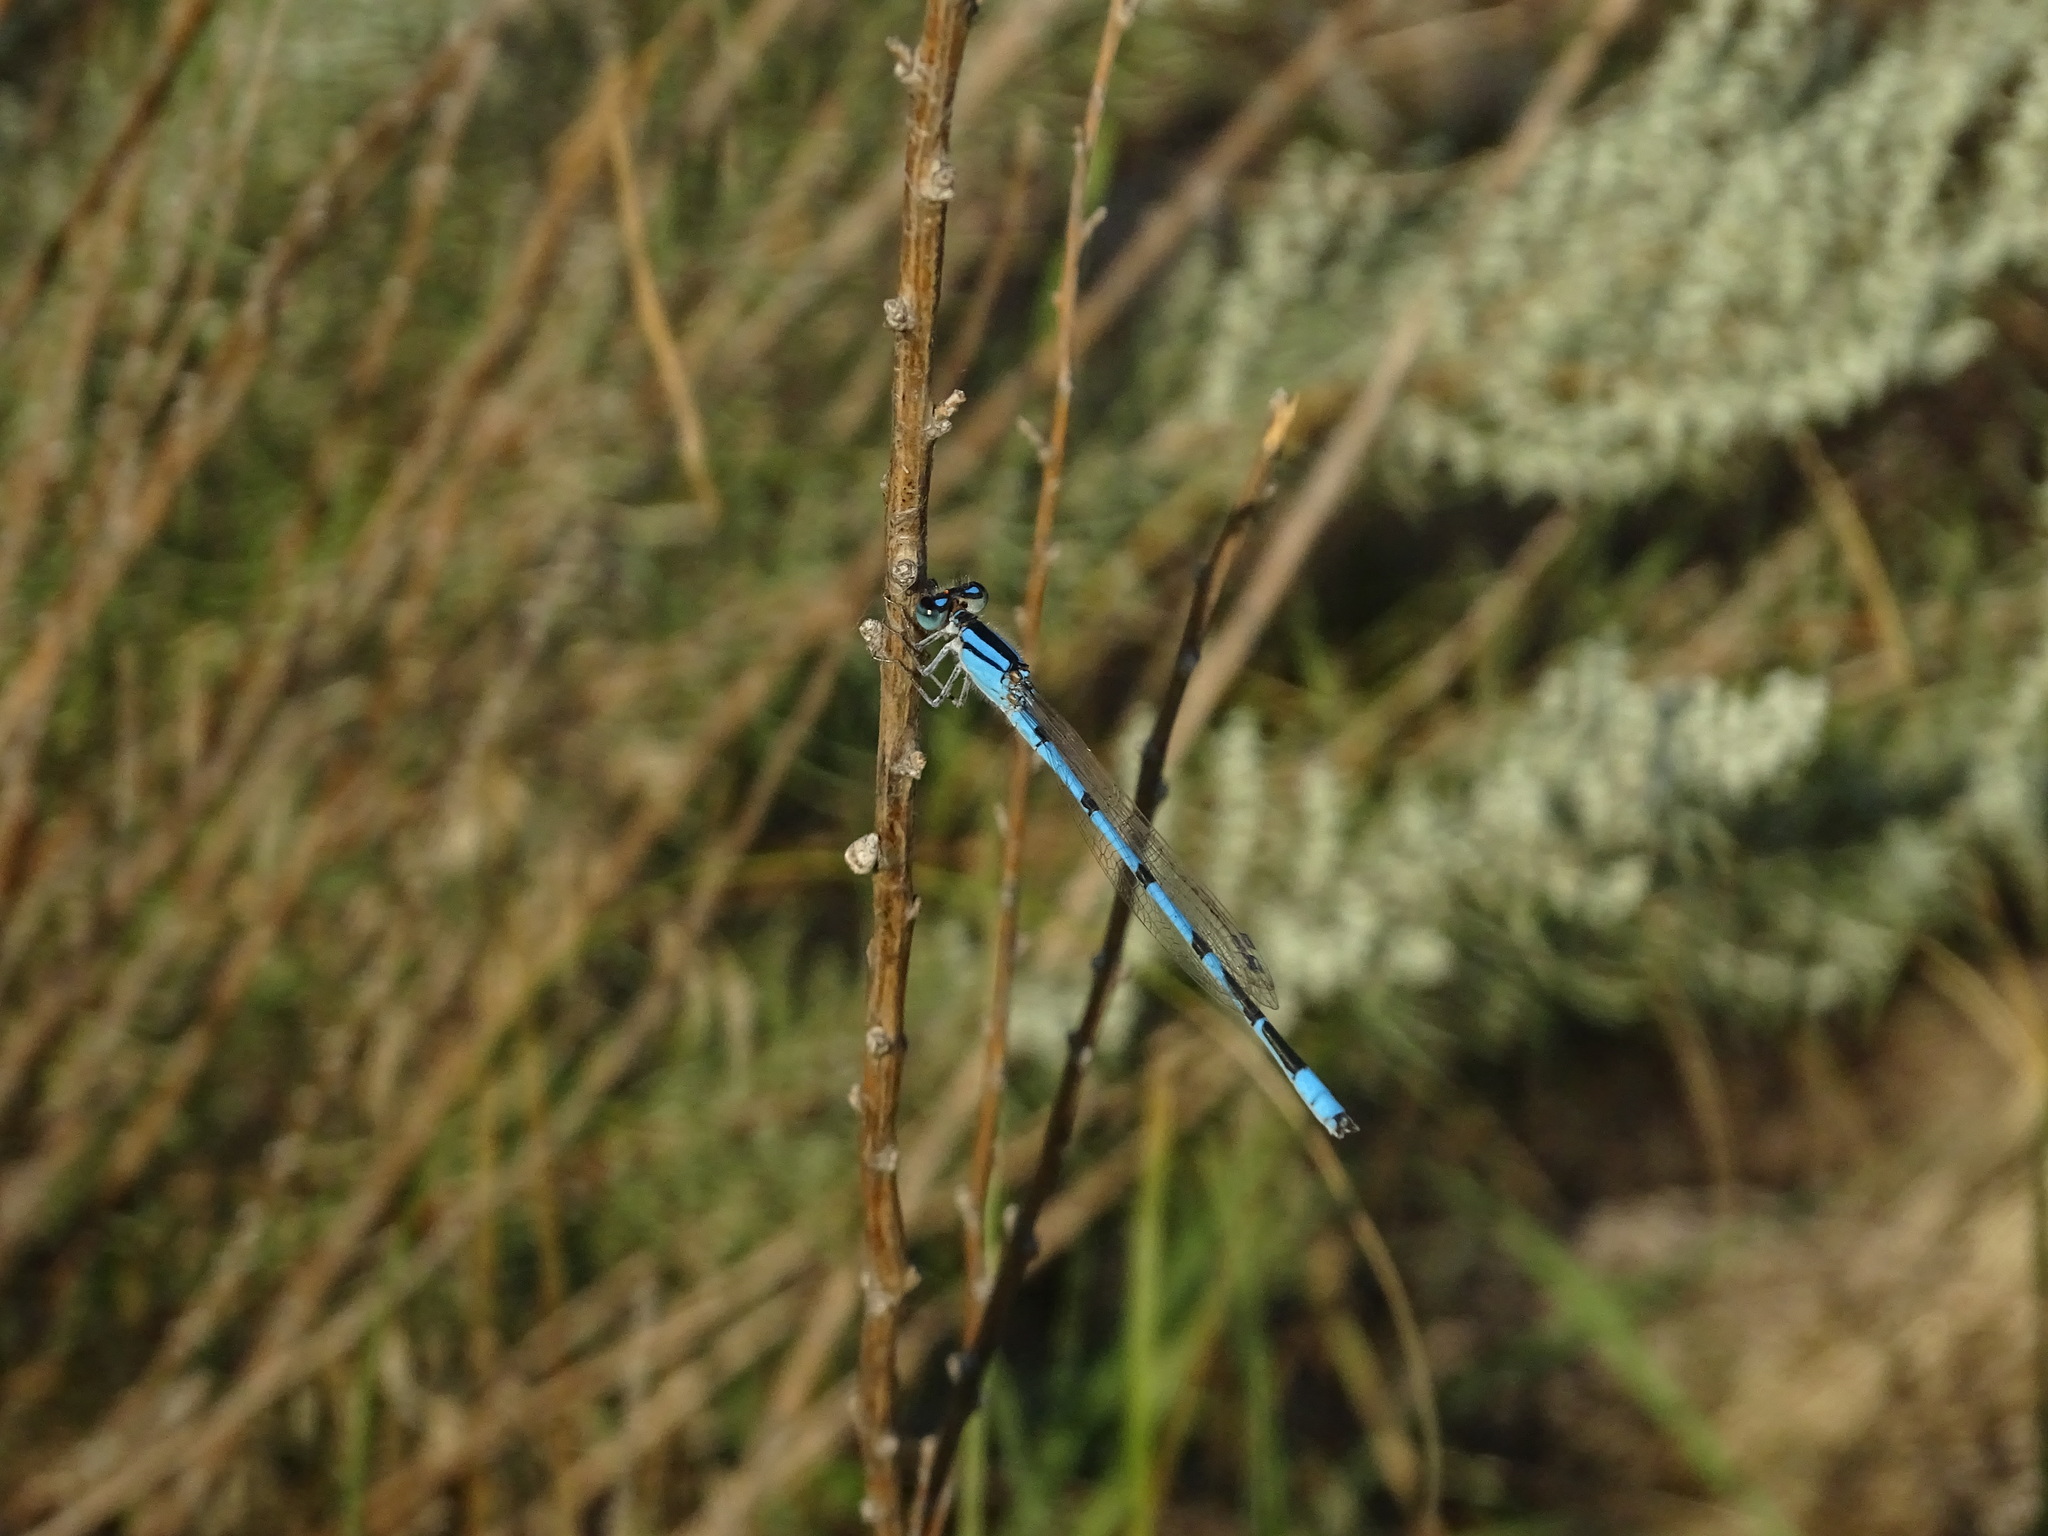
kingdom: Animalia
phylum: Arthropoda
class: Insecta
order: Odonata
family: Coenagrionidae
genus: Enallagma
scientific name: Enallagma civile
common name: Damselfly
